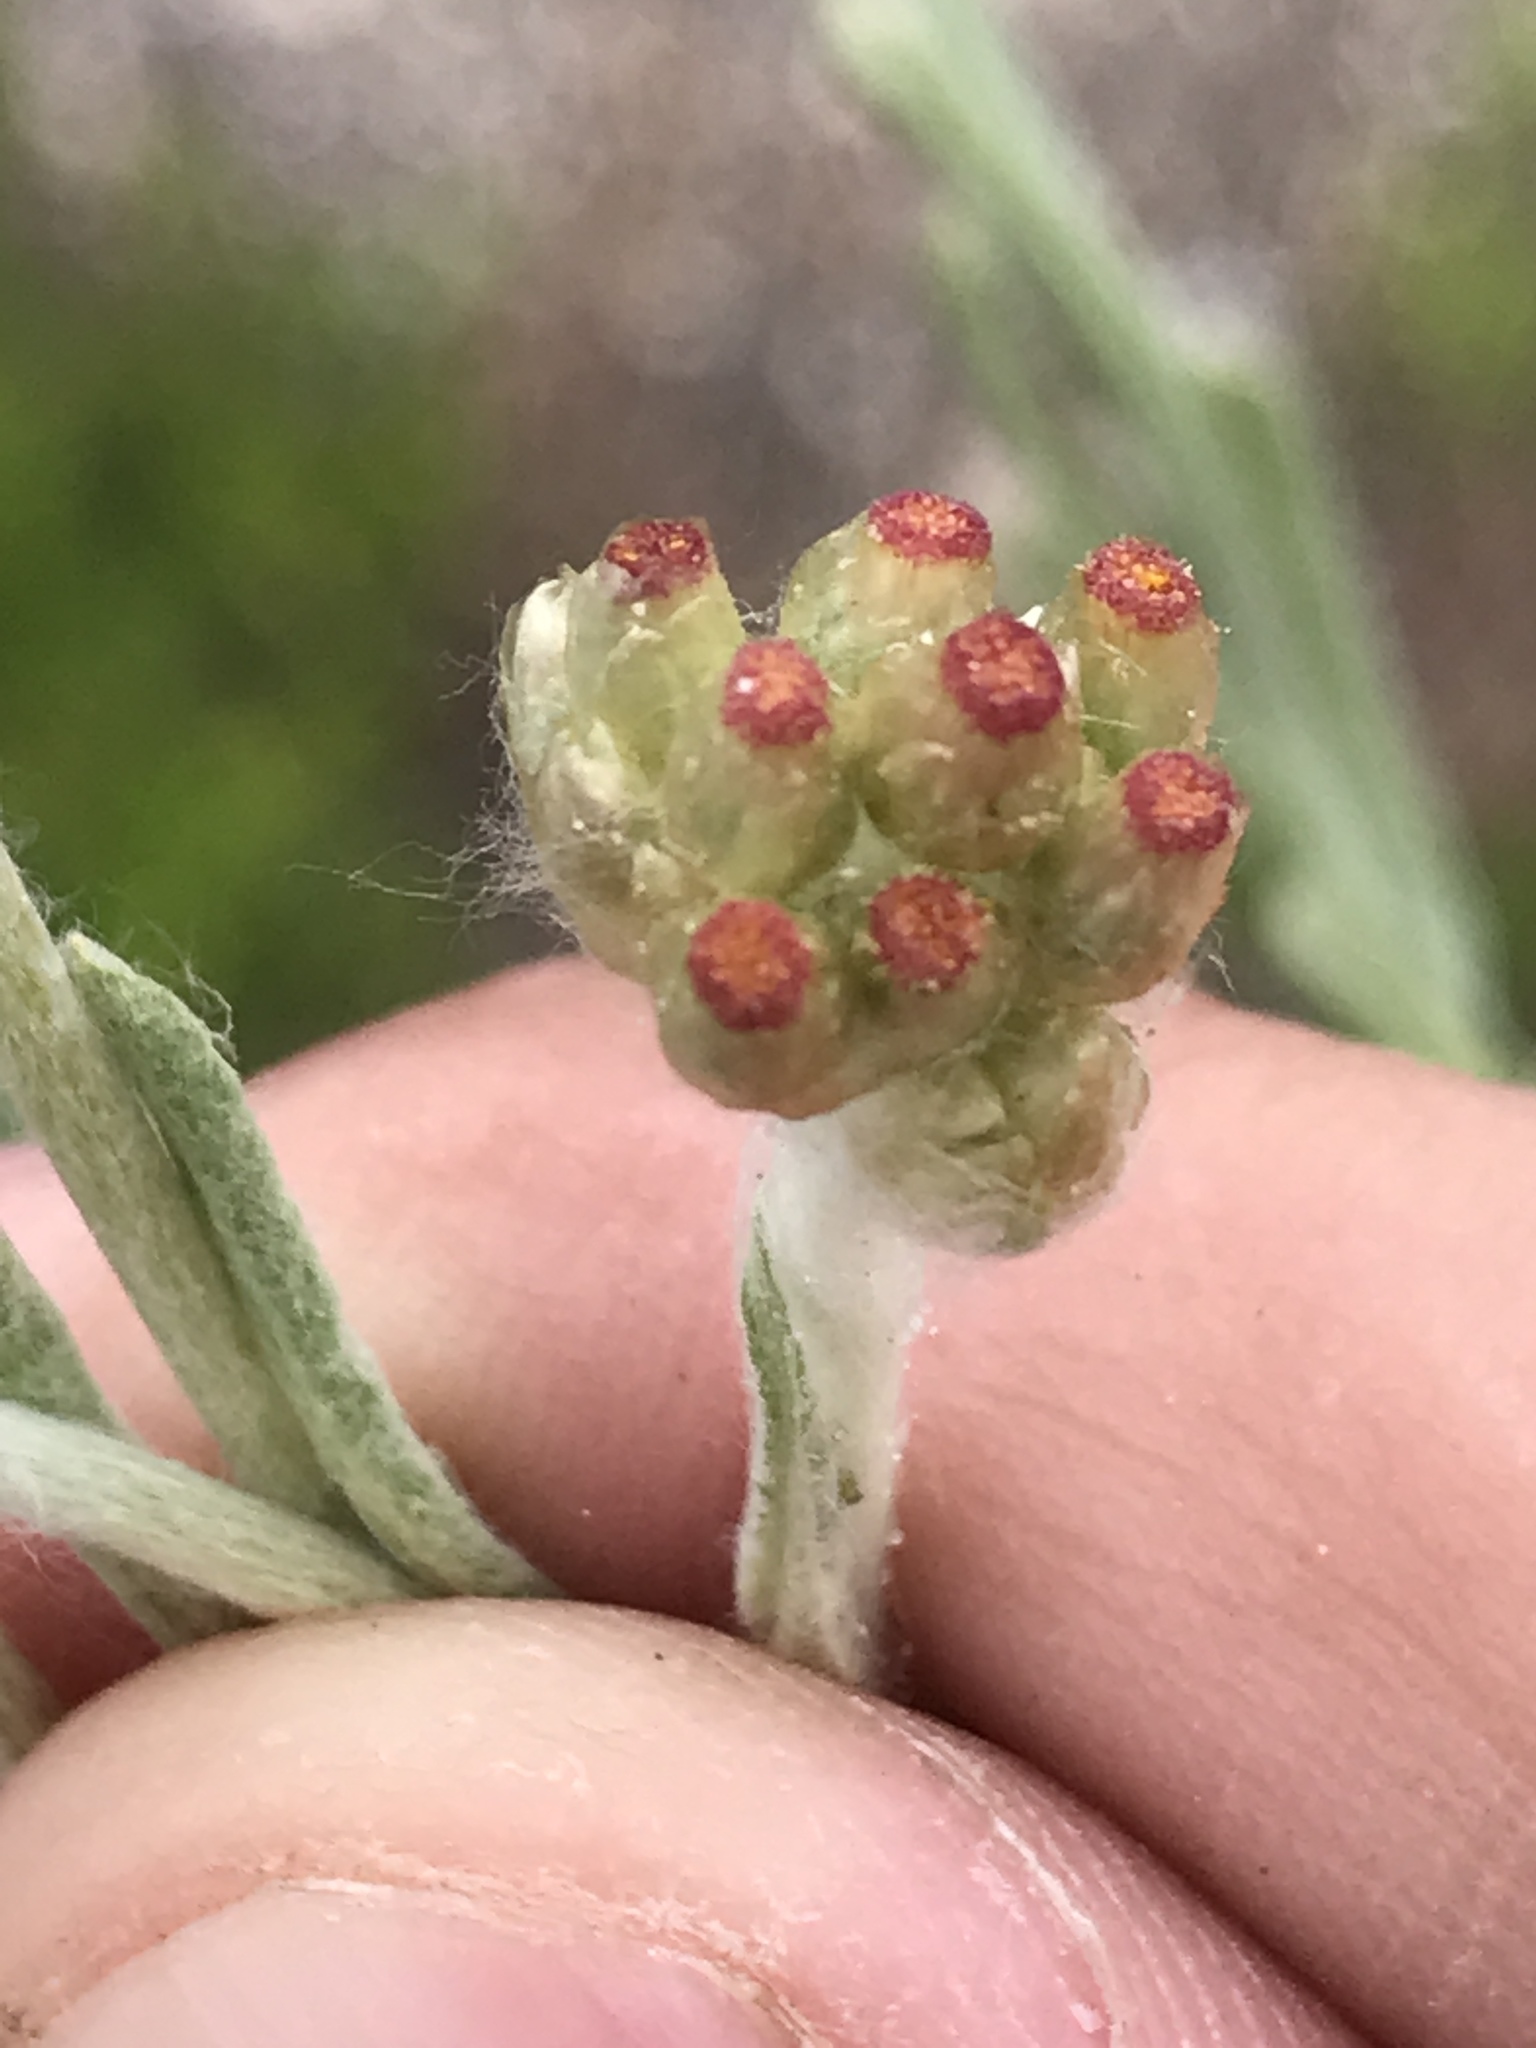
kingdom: Plantae
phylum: Tracheophyta
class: Magnoliopsida
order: Asterales
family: Asteraceae
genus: Helichrysum
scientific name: Helichrysum luteoalbum
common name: Daisy
